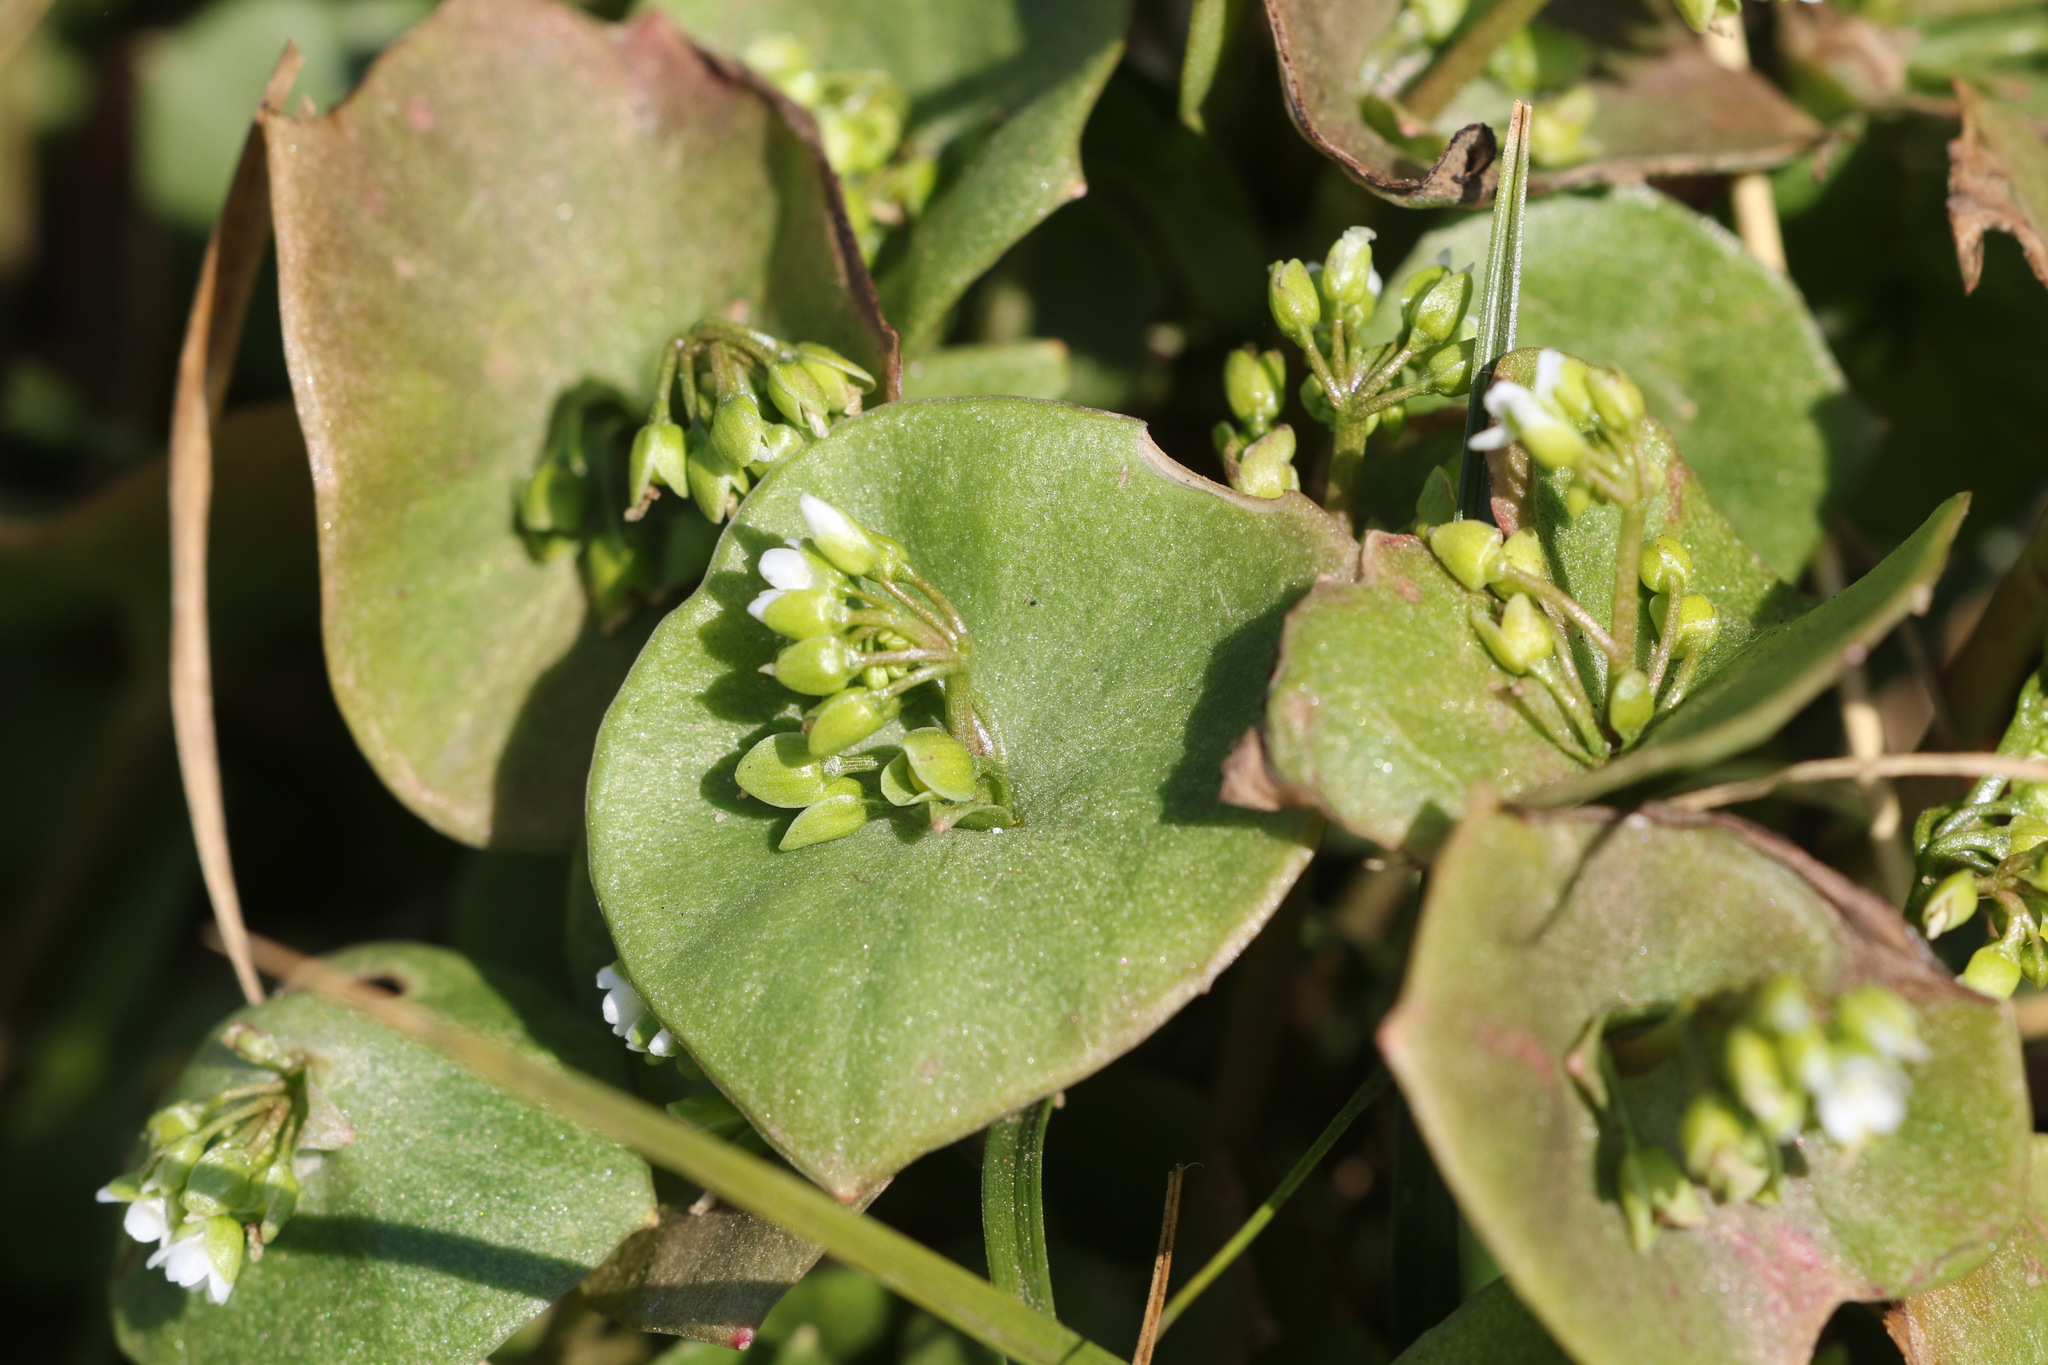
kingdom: Plantae
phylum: Tracheophyta
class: Magnoliopsida
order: Caryophyllales
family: Montiaceae
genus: Claytonia
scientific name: Claytonia perfoliata
